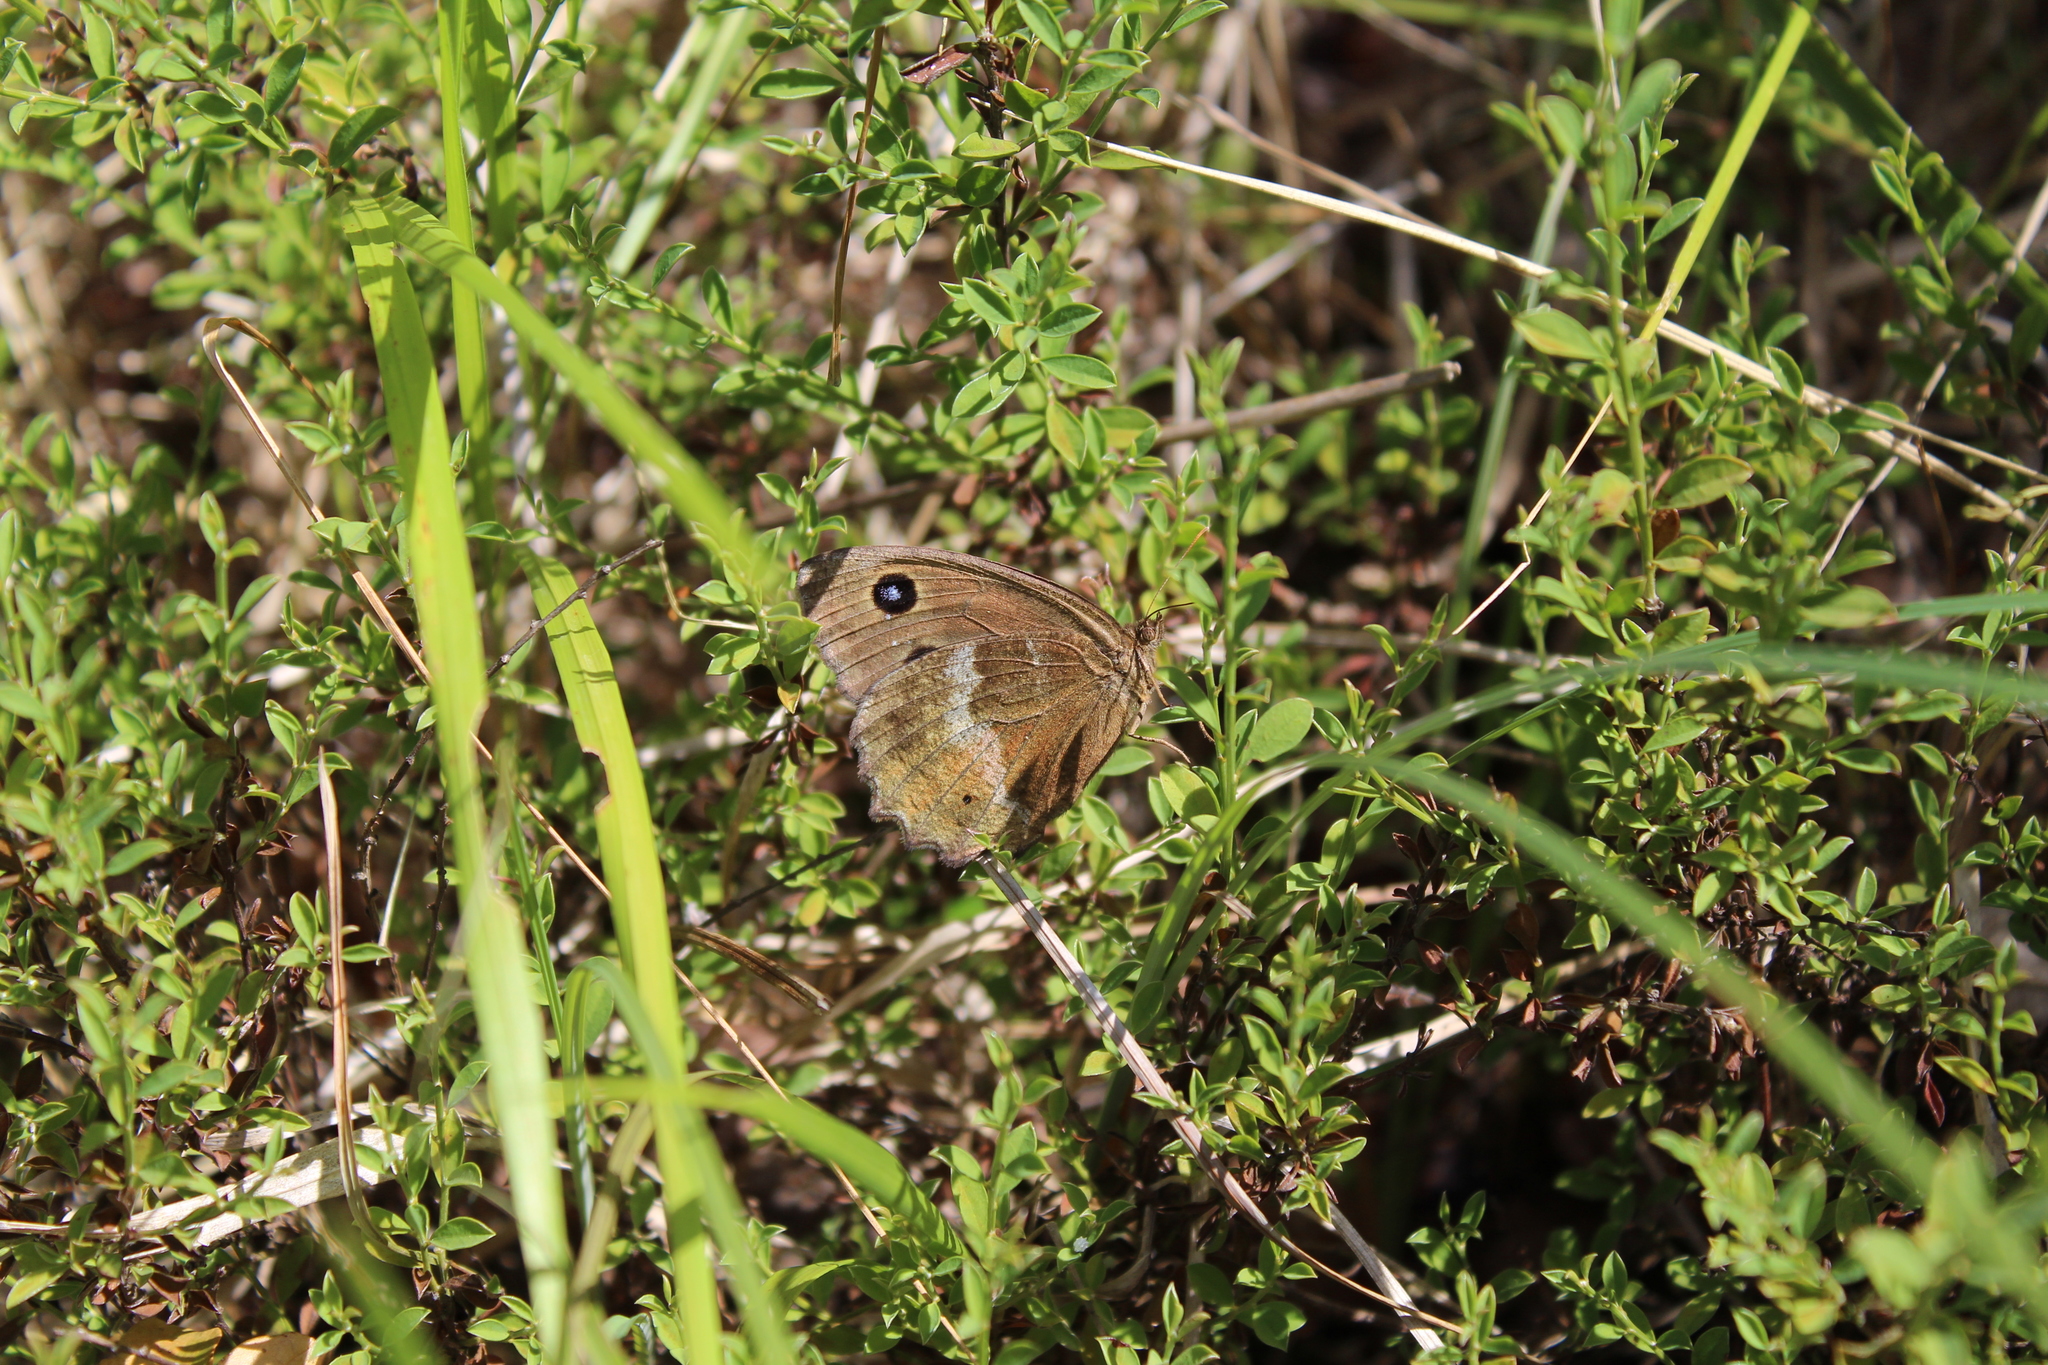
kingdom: Animalia
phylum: Arthropoda
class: Insecta
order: Lepidoptera
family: Nymphalidae
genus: Minois
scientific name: Minois dryas
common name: Dryad
